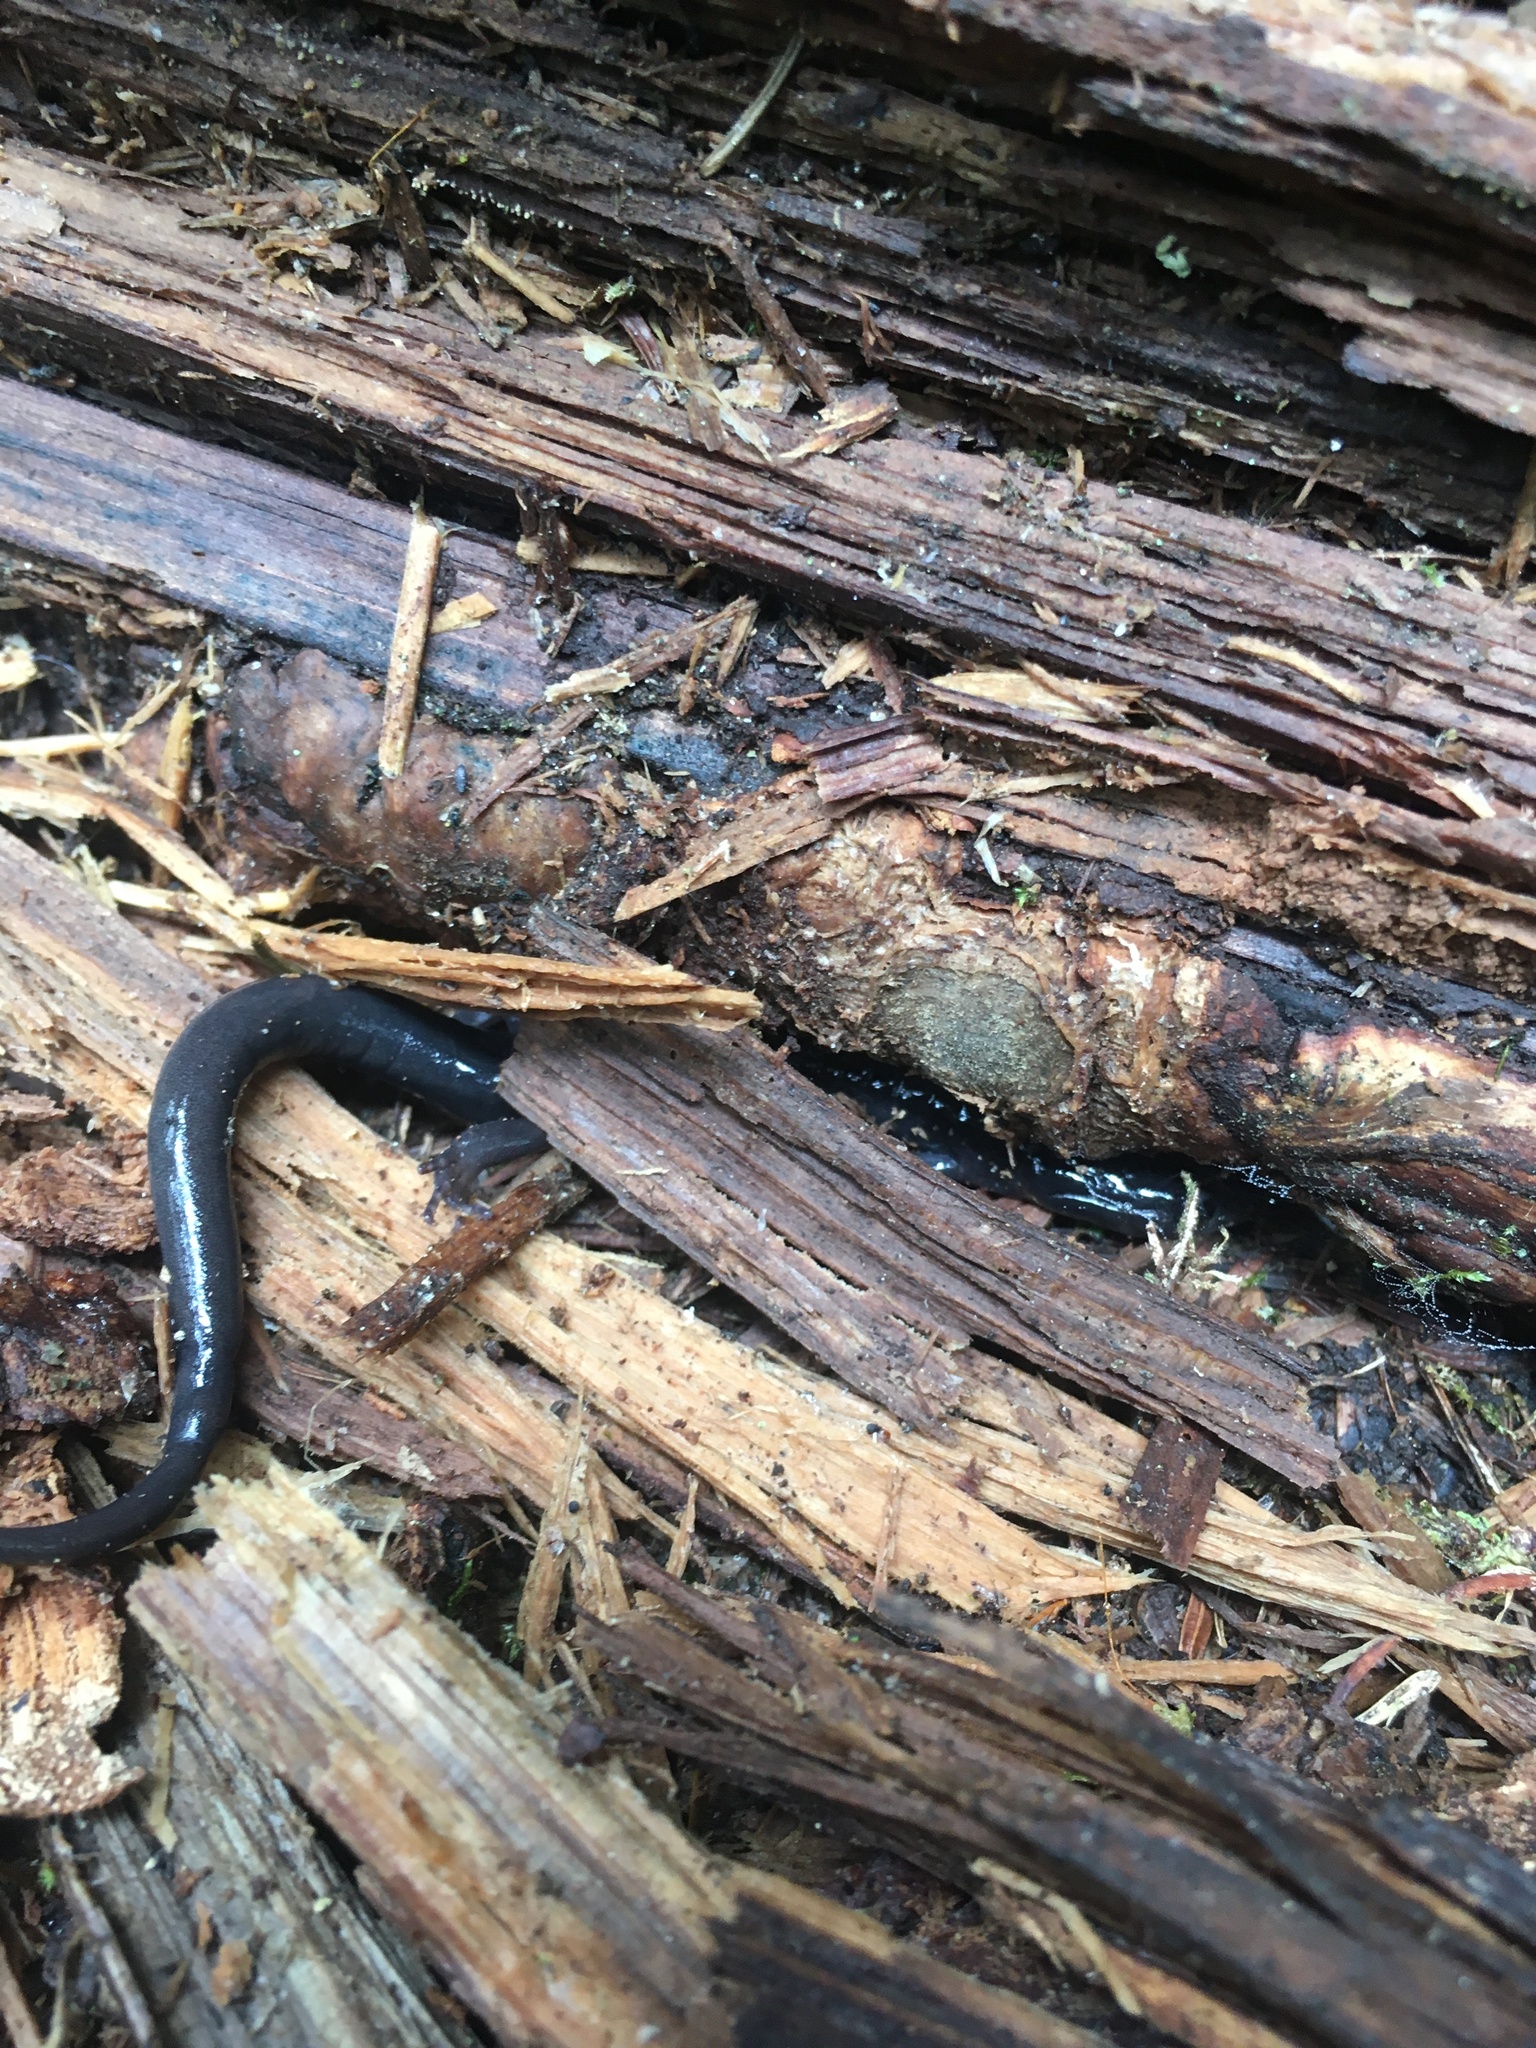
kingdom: Animalia
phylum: Chordata
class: Amphibia
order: Caudata
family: Plethodontidae
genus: Plethodon
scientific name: Plethodon montanus
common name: Northern gray-cheeked salamander
